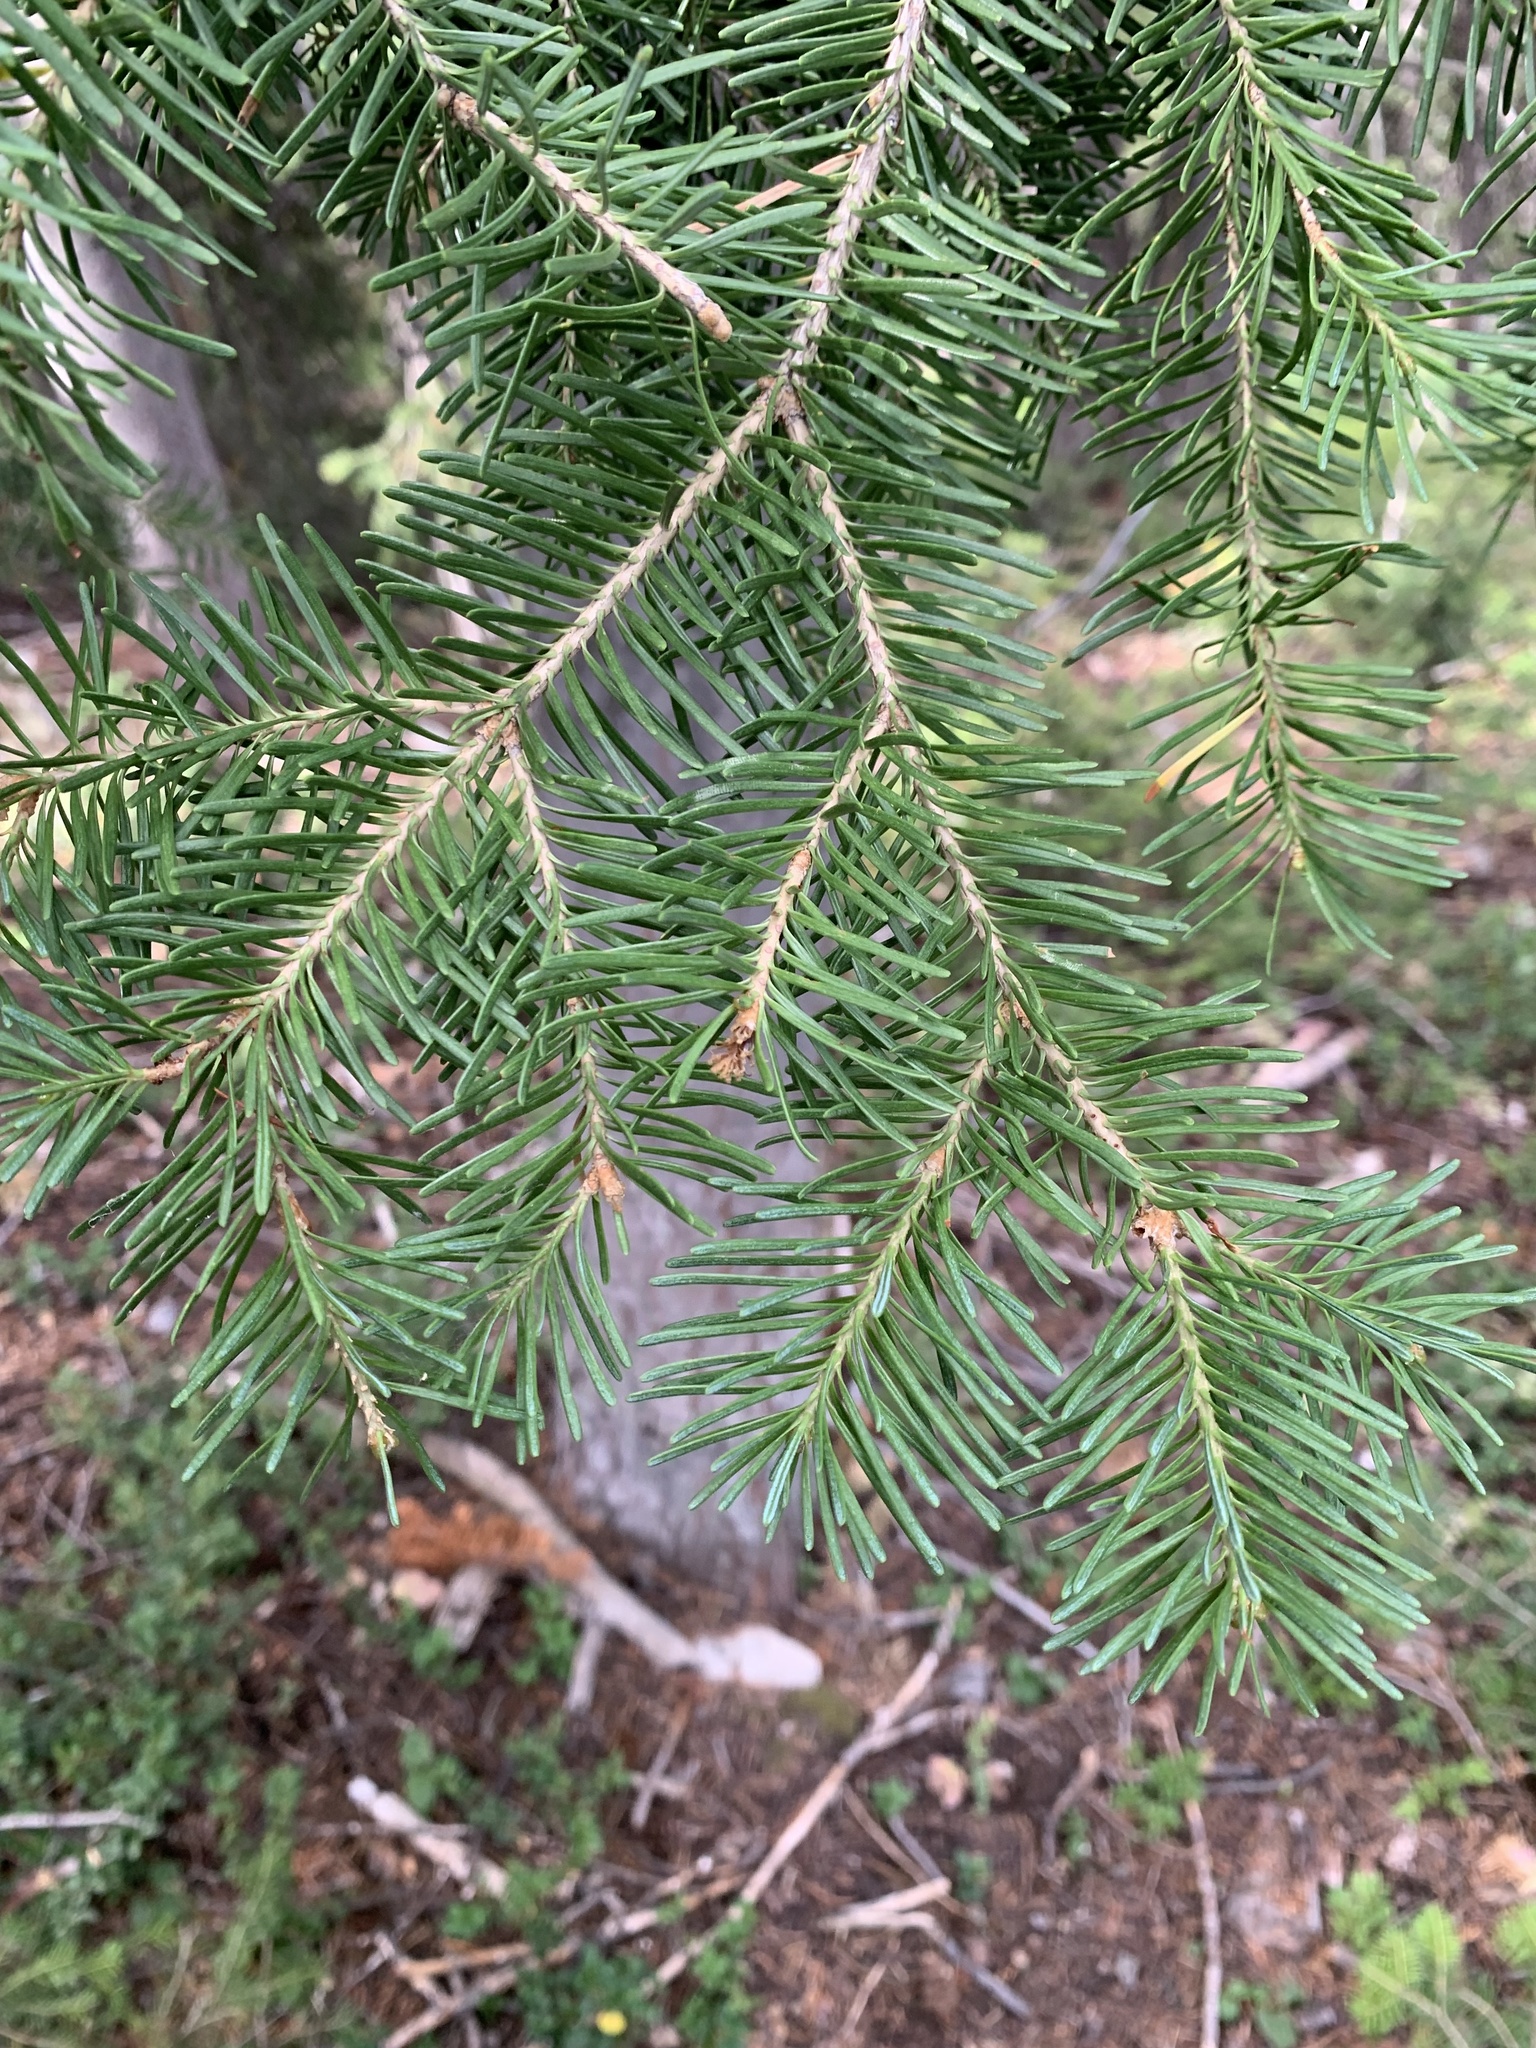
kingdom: Plantae
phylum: Tracheophyta
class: Pinopsida
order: Pinales
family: Pinaceae
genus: Abies
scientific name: Abies lasiocarpa
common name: Subalpine fir
